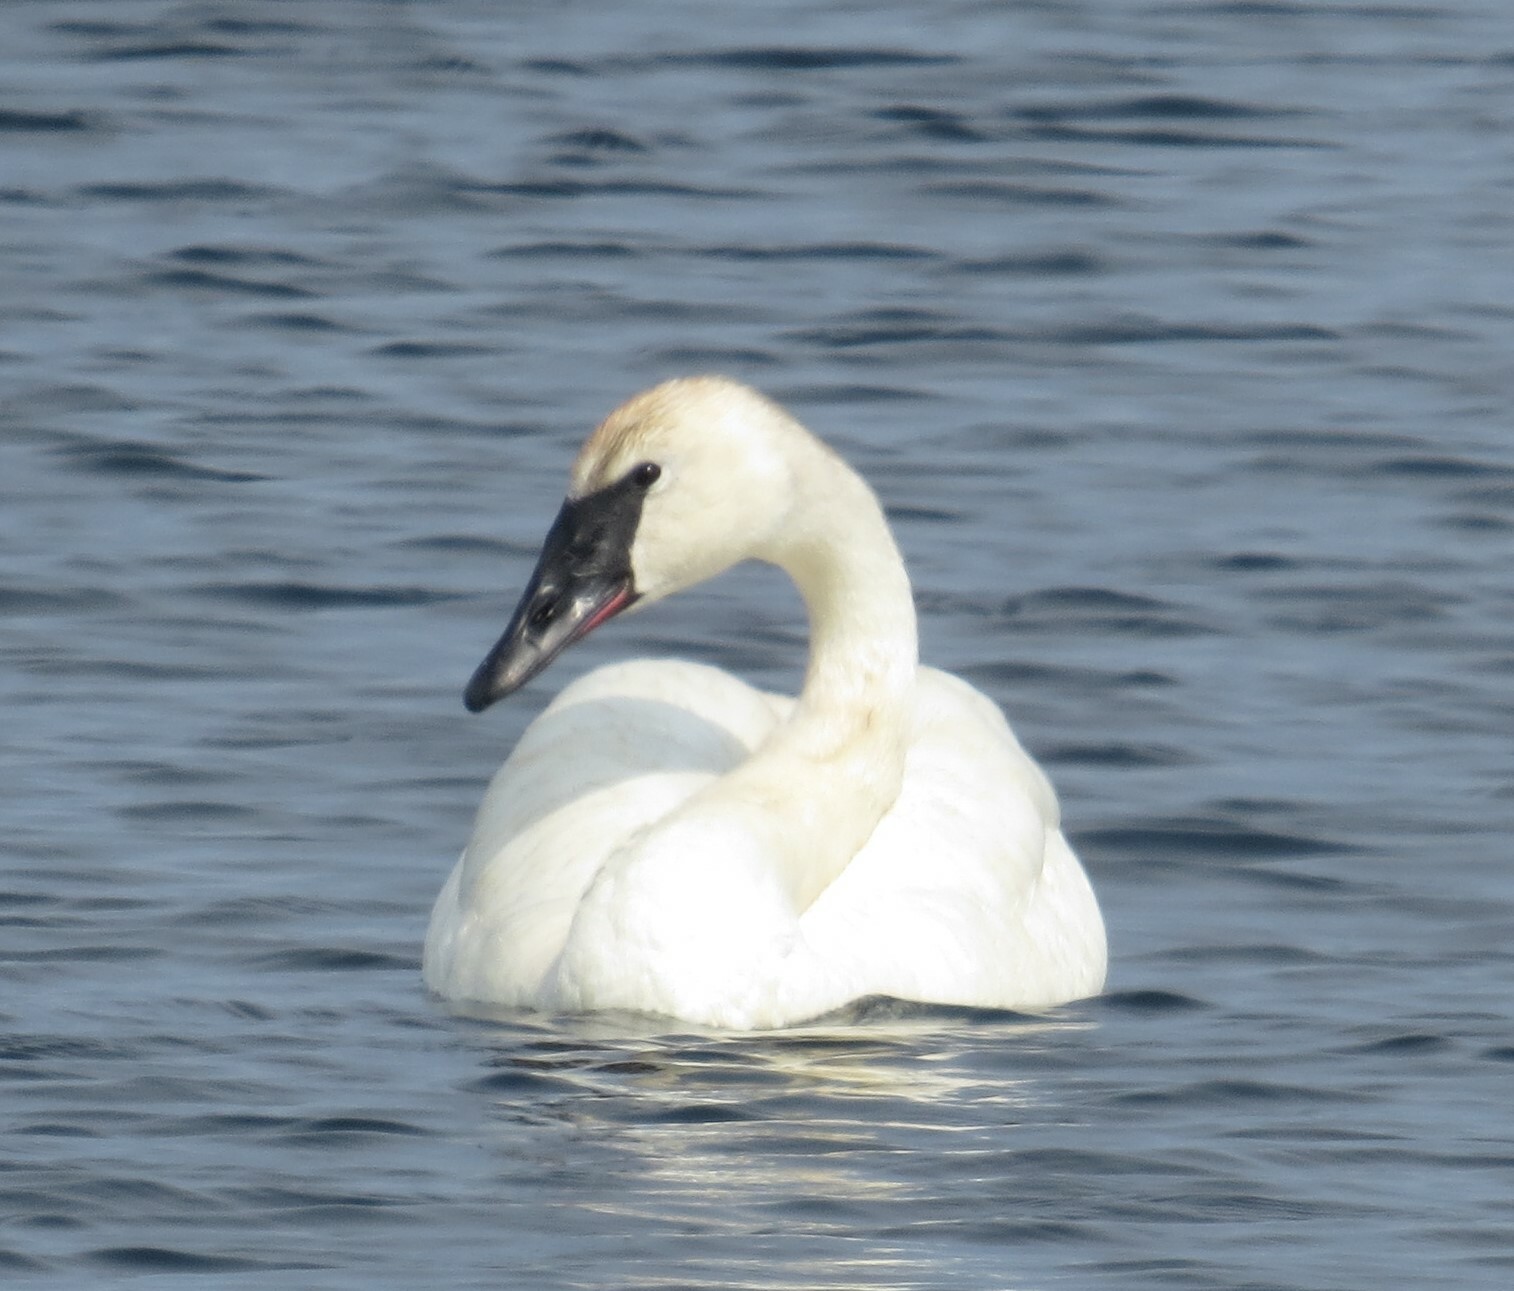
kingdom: Animalia
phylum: Chordata
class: Aves
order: Anseriformes
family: Anatidae
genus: Cygnus
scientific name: Cygnus buccinator
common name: Trumpeter swan
